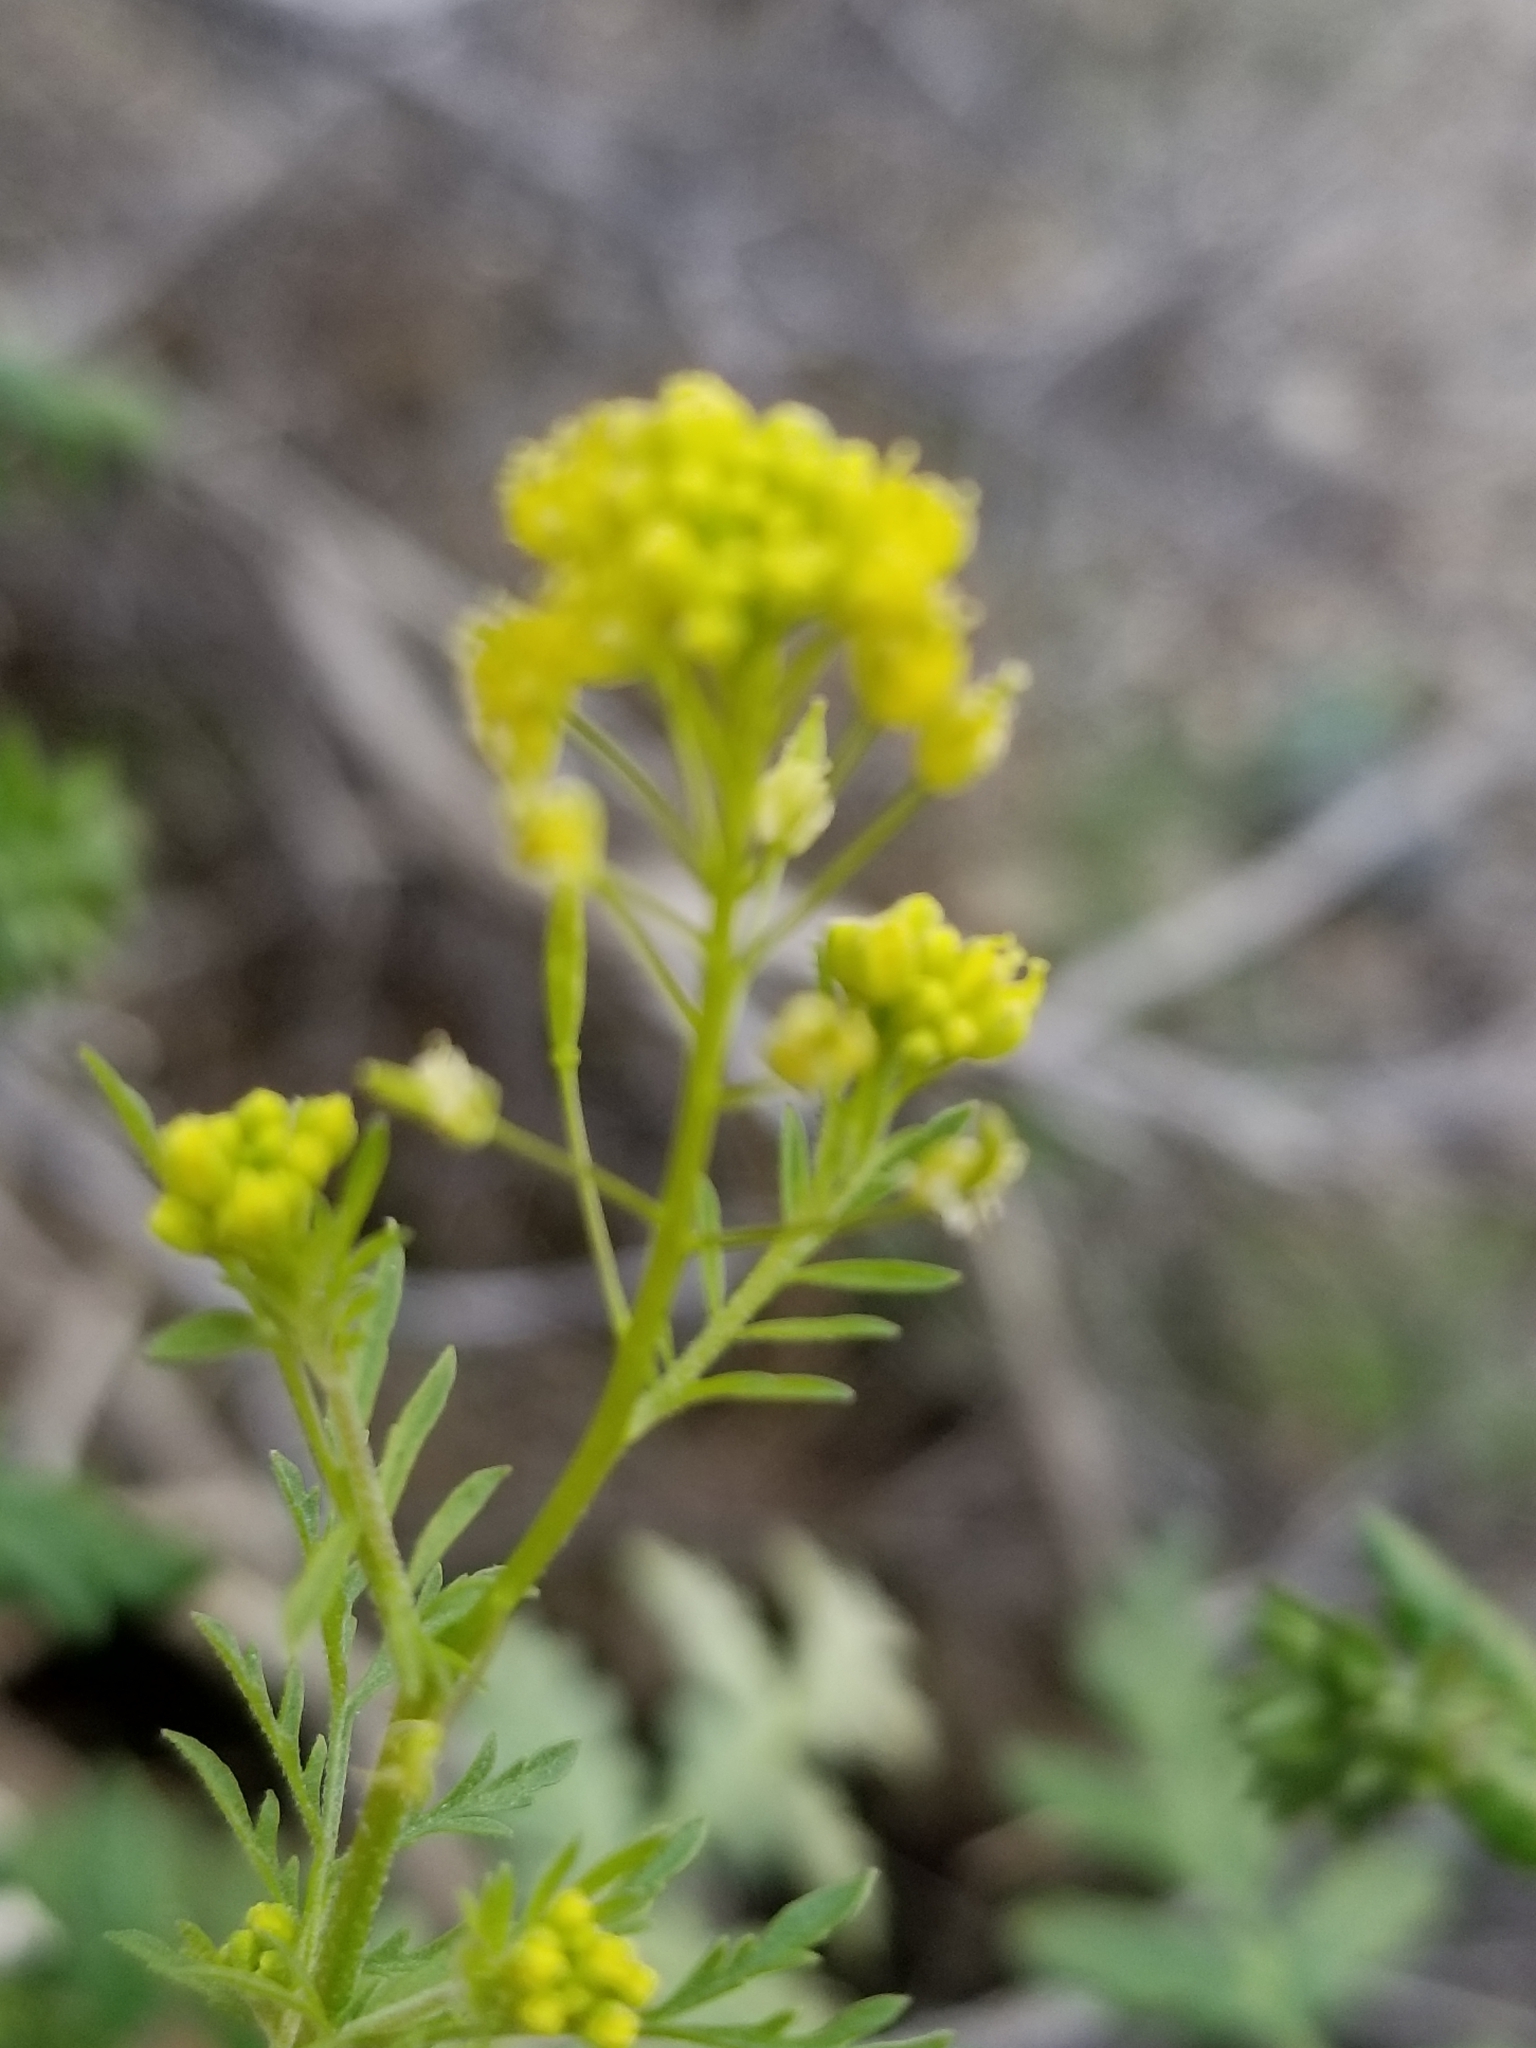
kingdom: Plantae
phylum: Tracheophyta
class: Magnoliopsida
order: Brassicales
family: Brassicaceae
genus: Descurainia
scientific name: Descurainia pinnata
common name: Western tansy mustard
